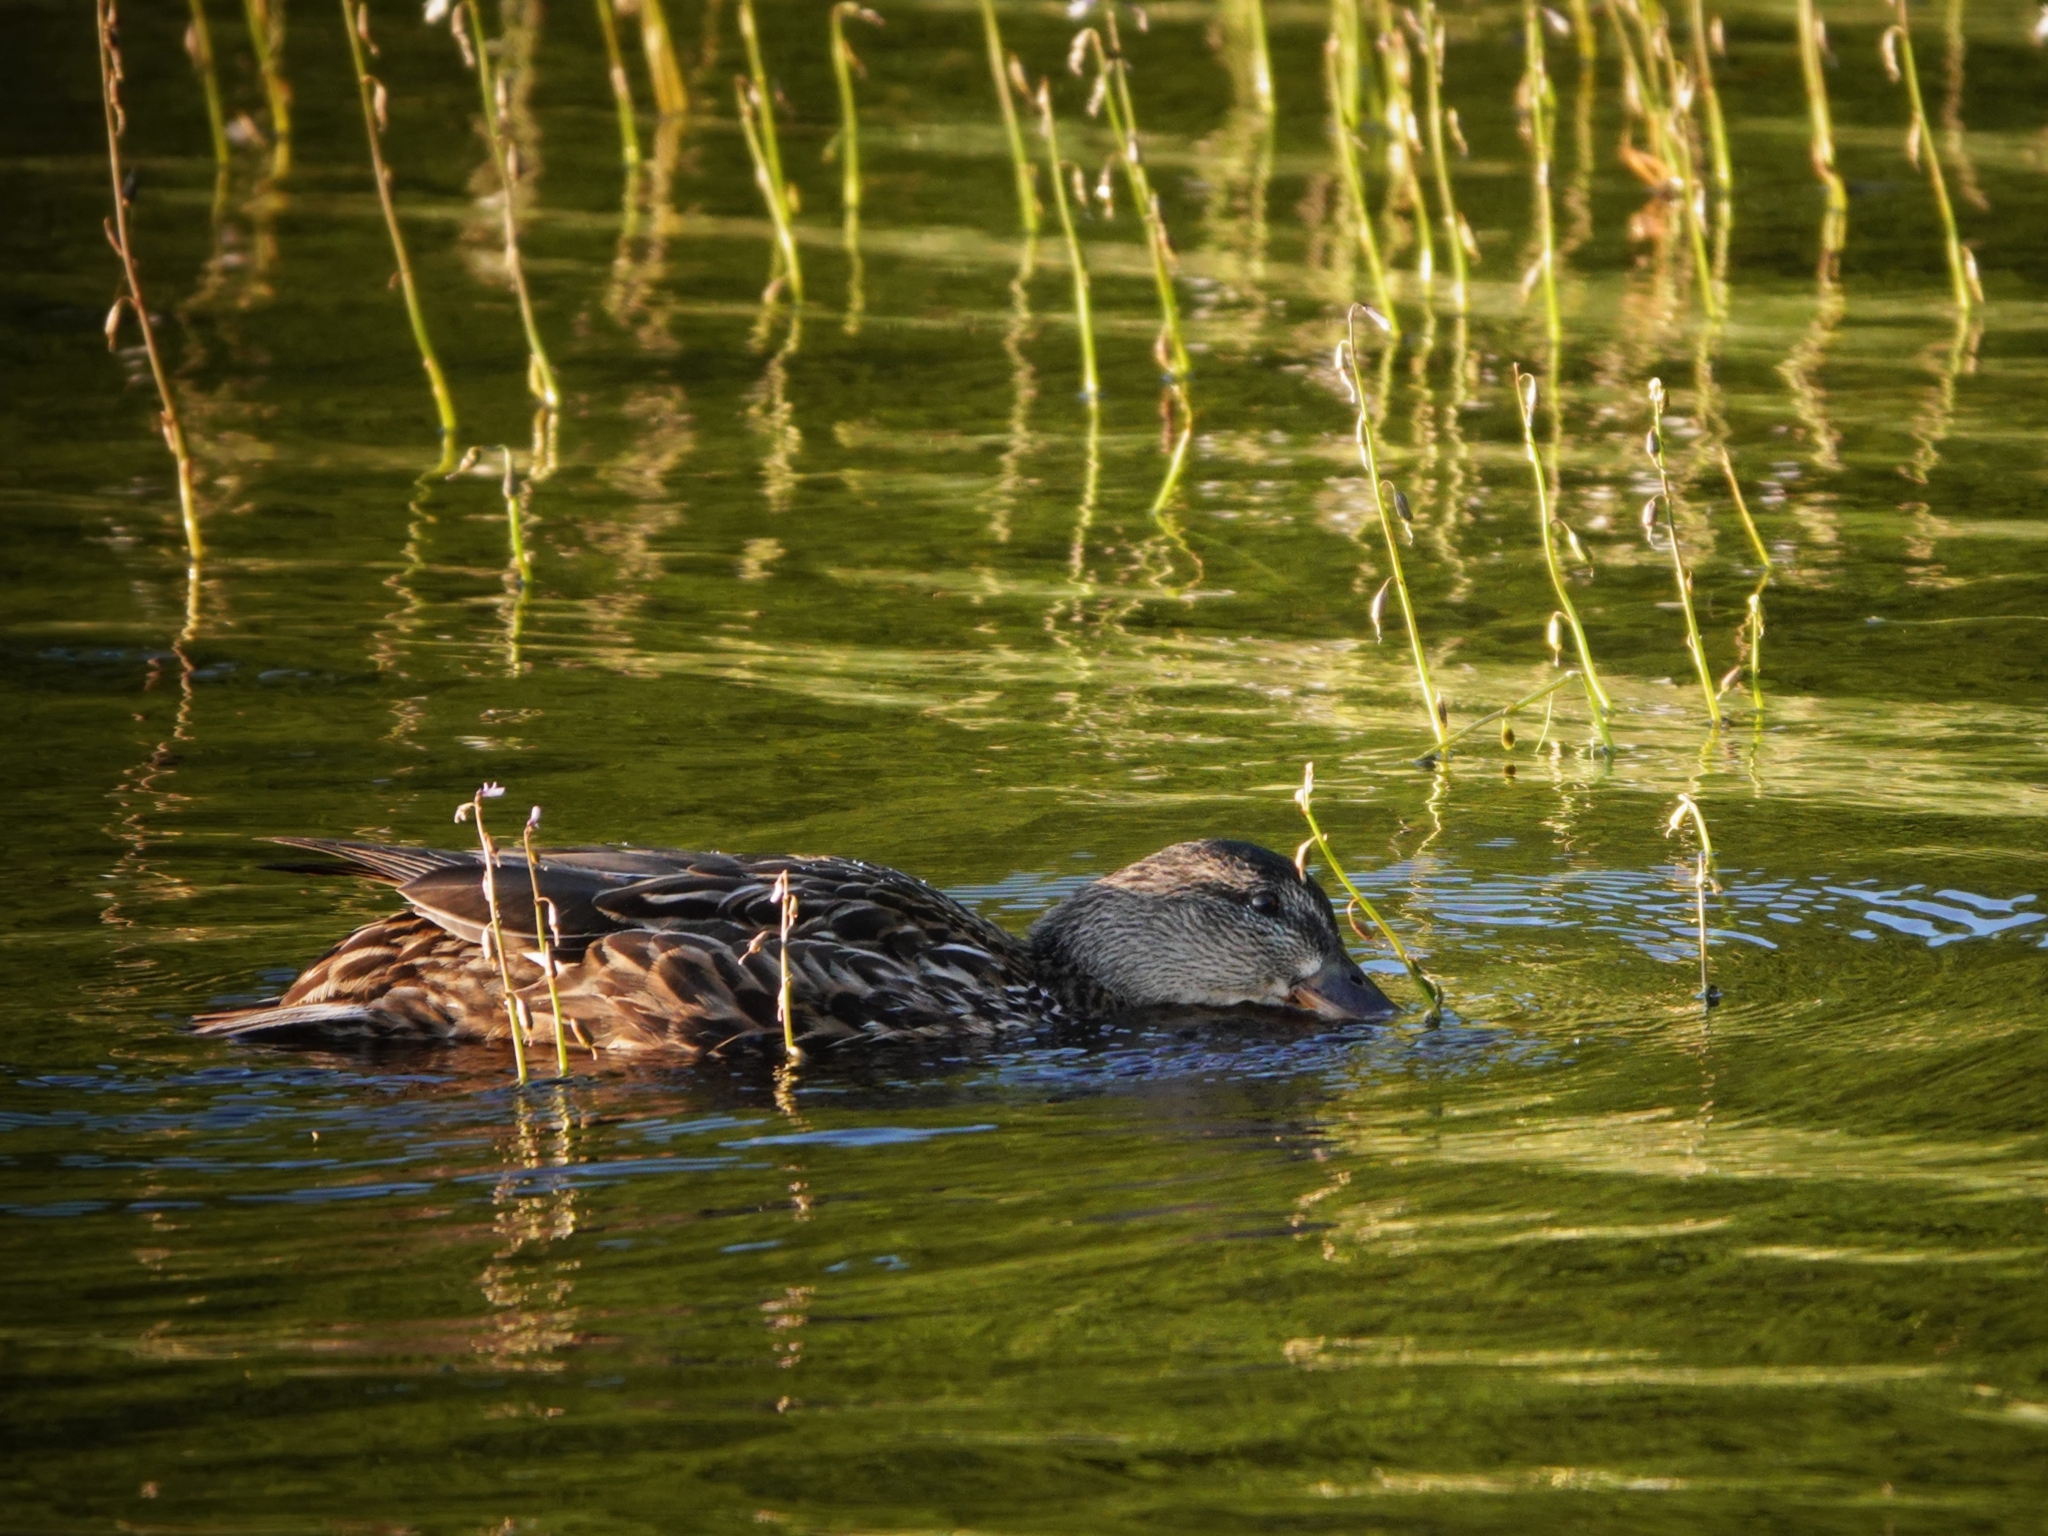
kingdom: Animalia
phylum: Chordata
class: Aves
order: Anseriformes
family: Anatidae
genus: Anas
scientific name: Anas crecca
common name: Eurasian teal
